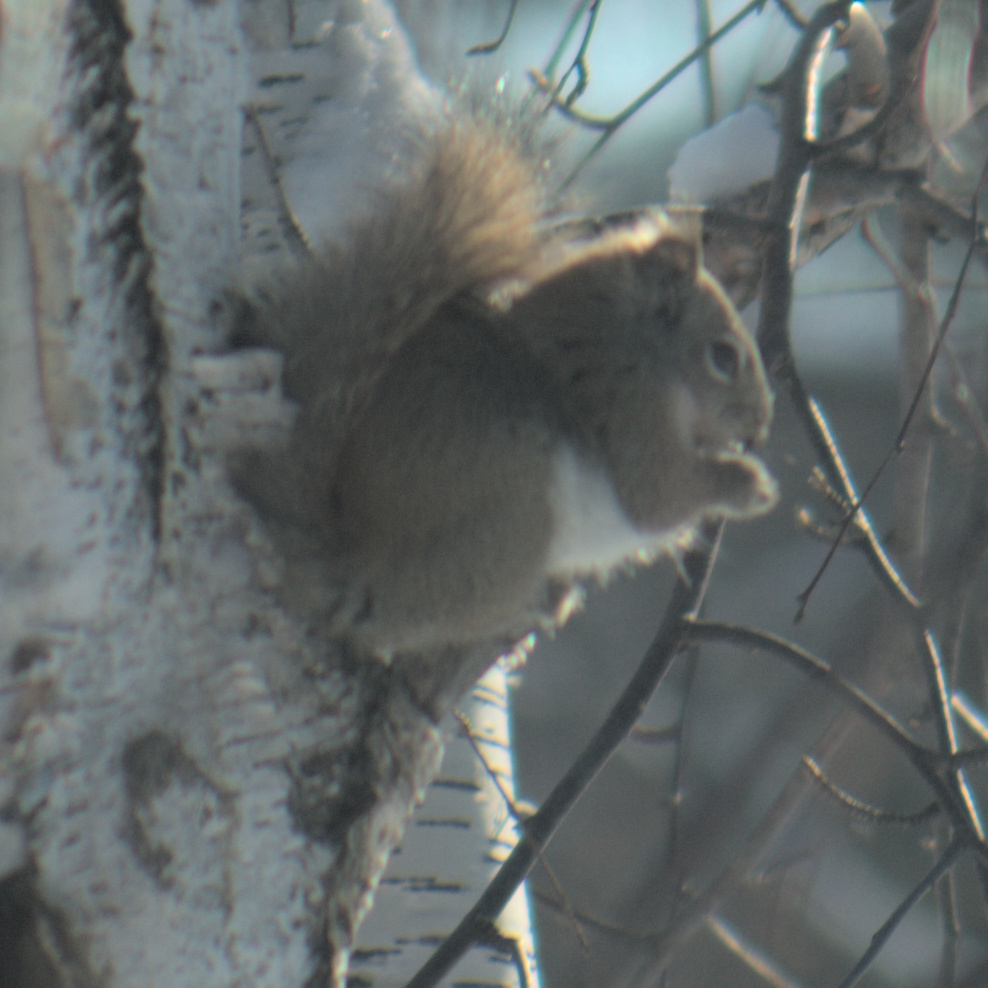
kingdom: Animalia
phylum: Chordata
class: Mammalia
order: Rodentia
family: Sciuridae
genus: Tamiasciurus
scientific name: Tamiasciurus hudsonicus
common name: Red squirrel
